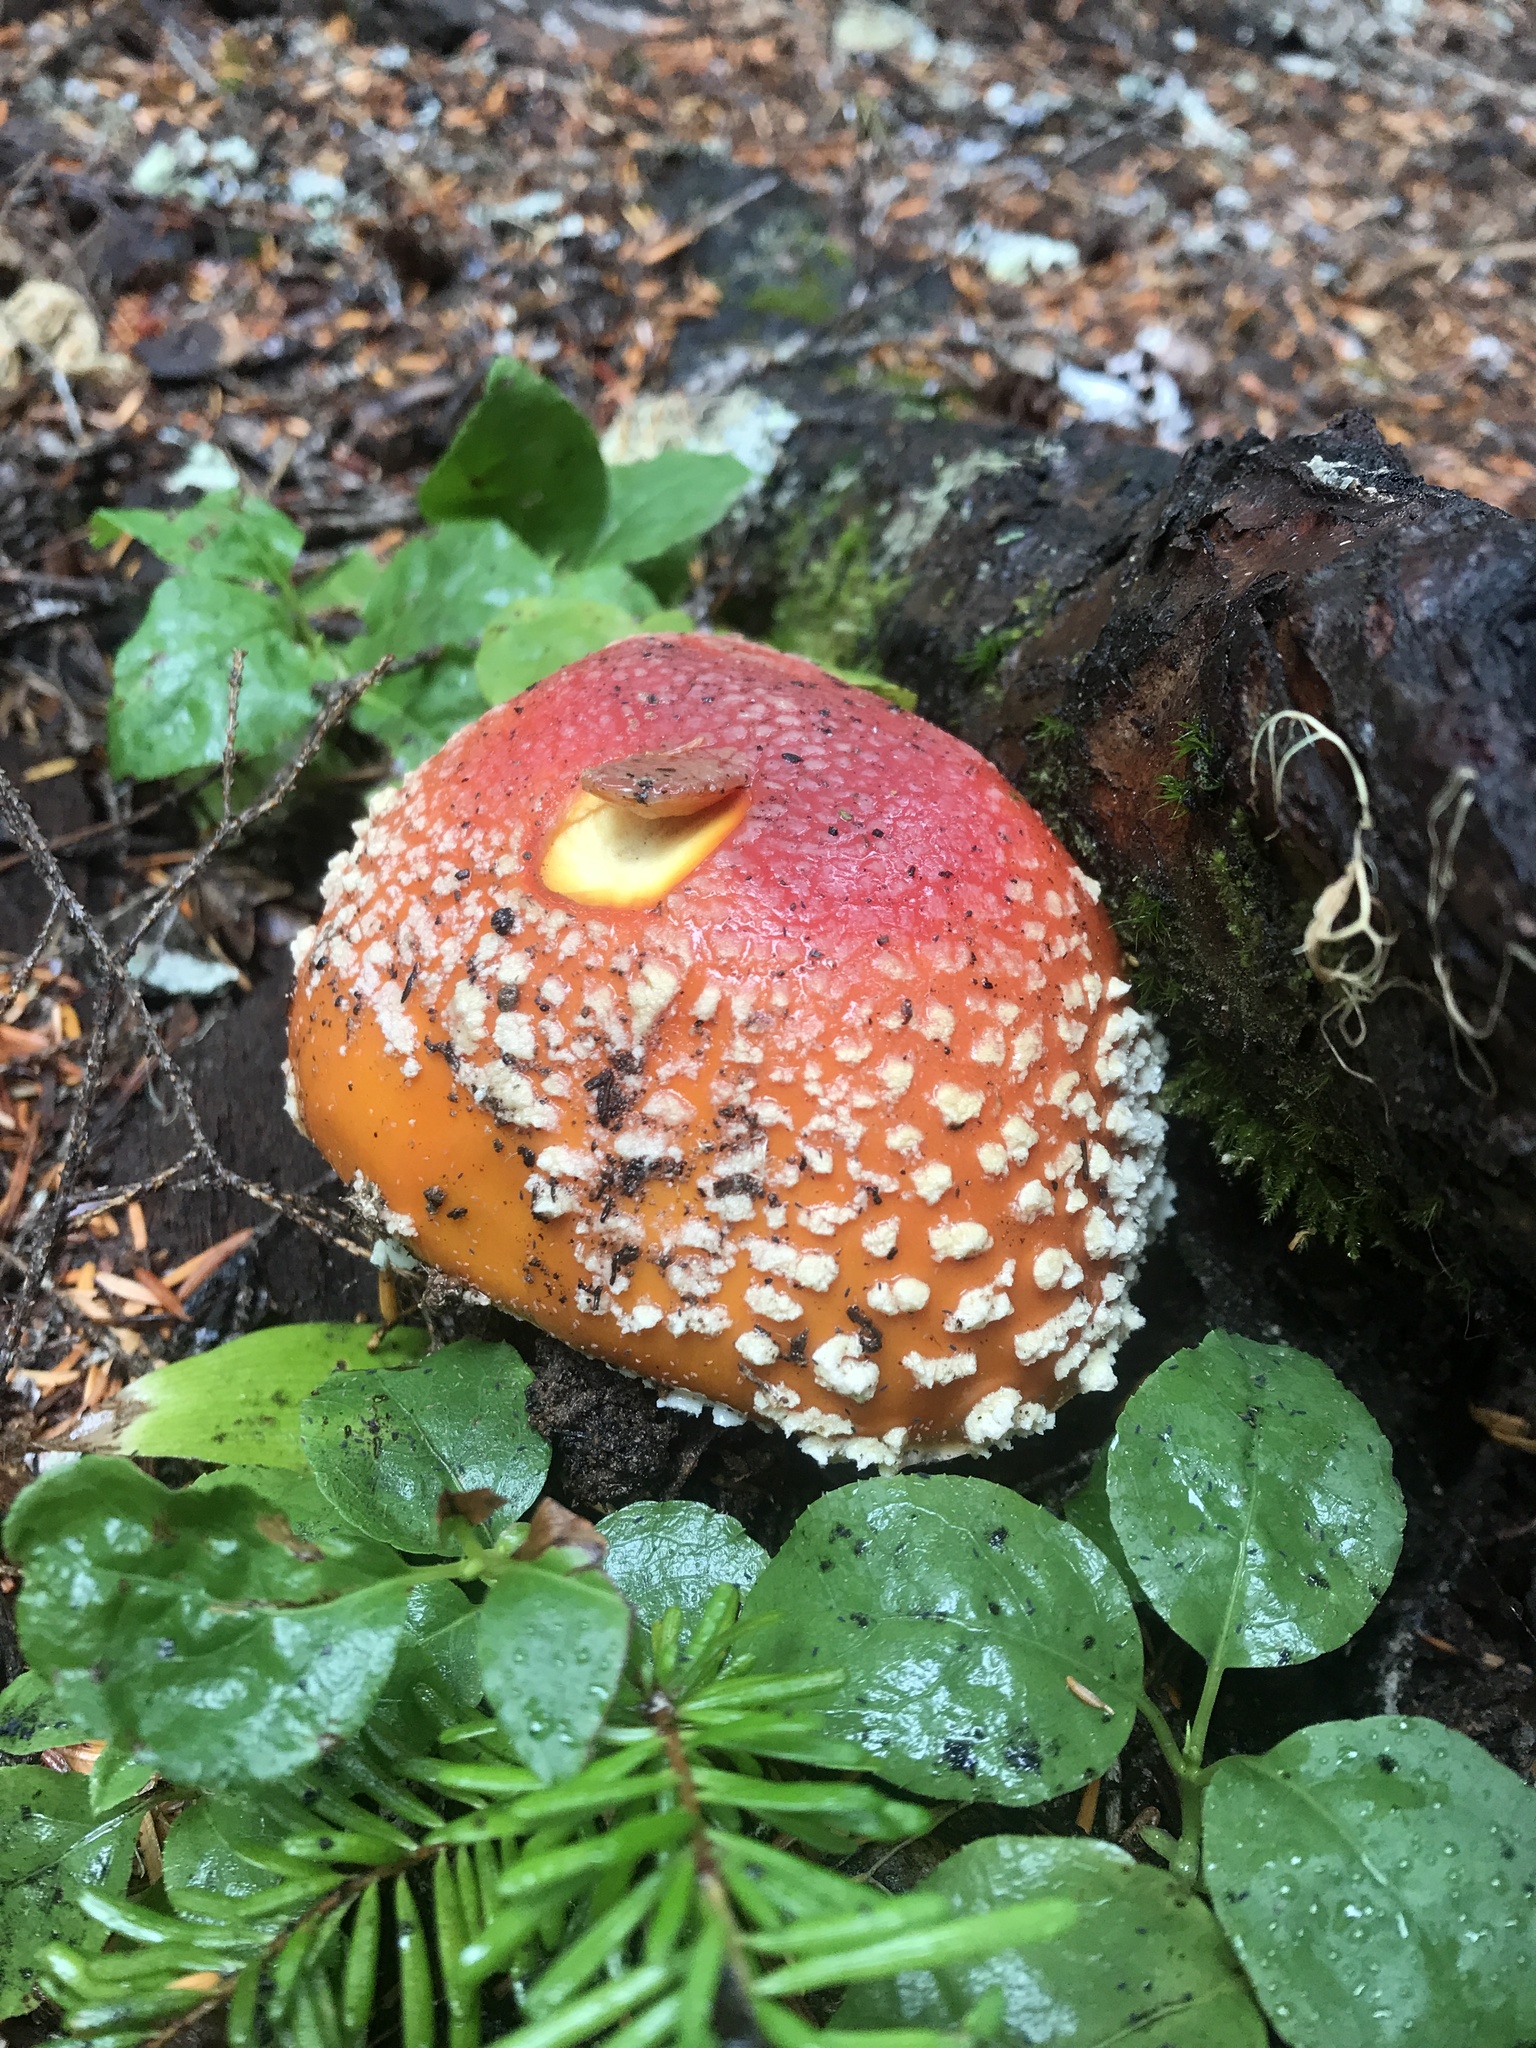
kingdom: Fungi
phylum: Basidiomycota
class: Agaricomycetes
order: Agaricales
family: Amanitaceae
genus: Amanita
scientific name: Amanita muscaria
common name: Fly agaric
